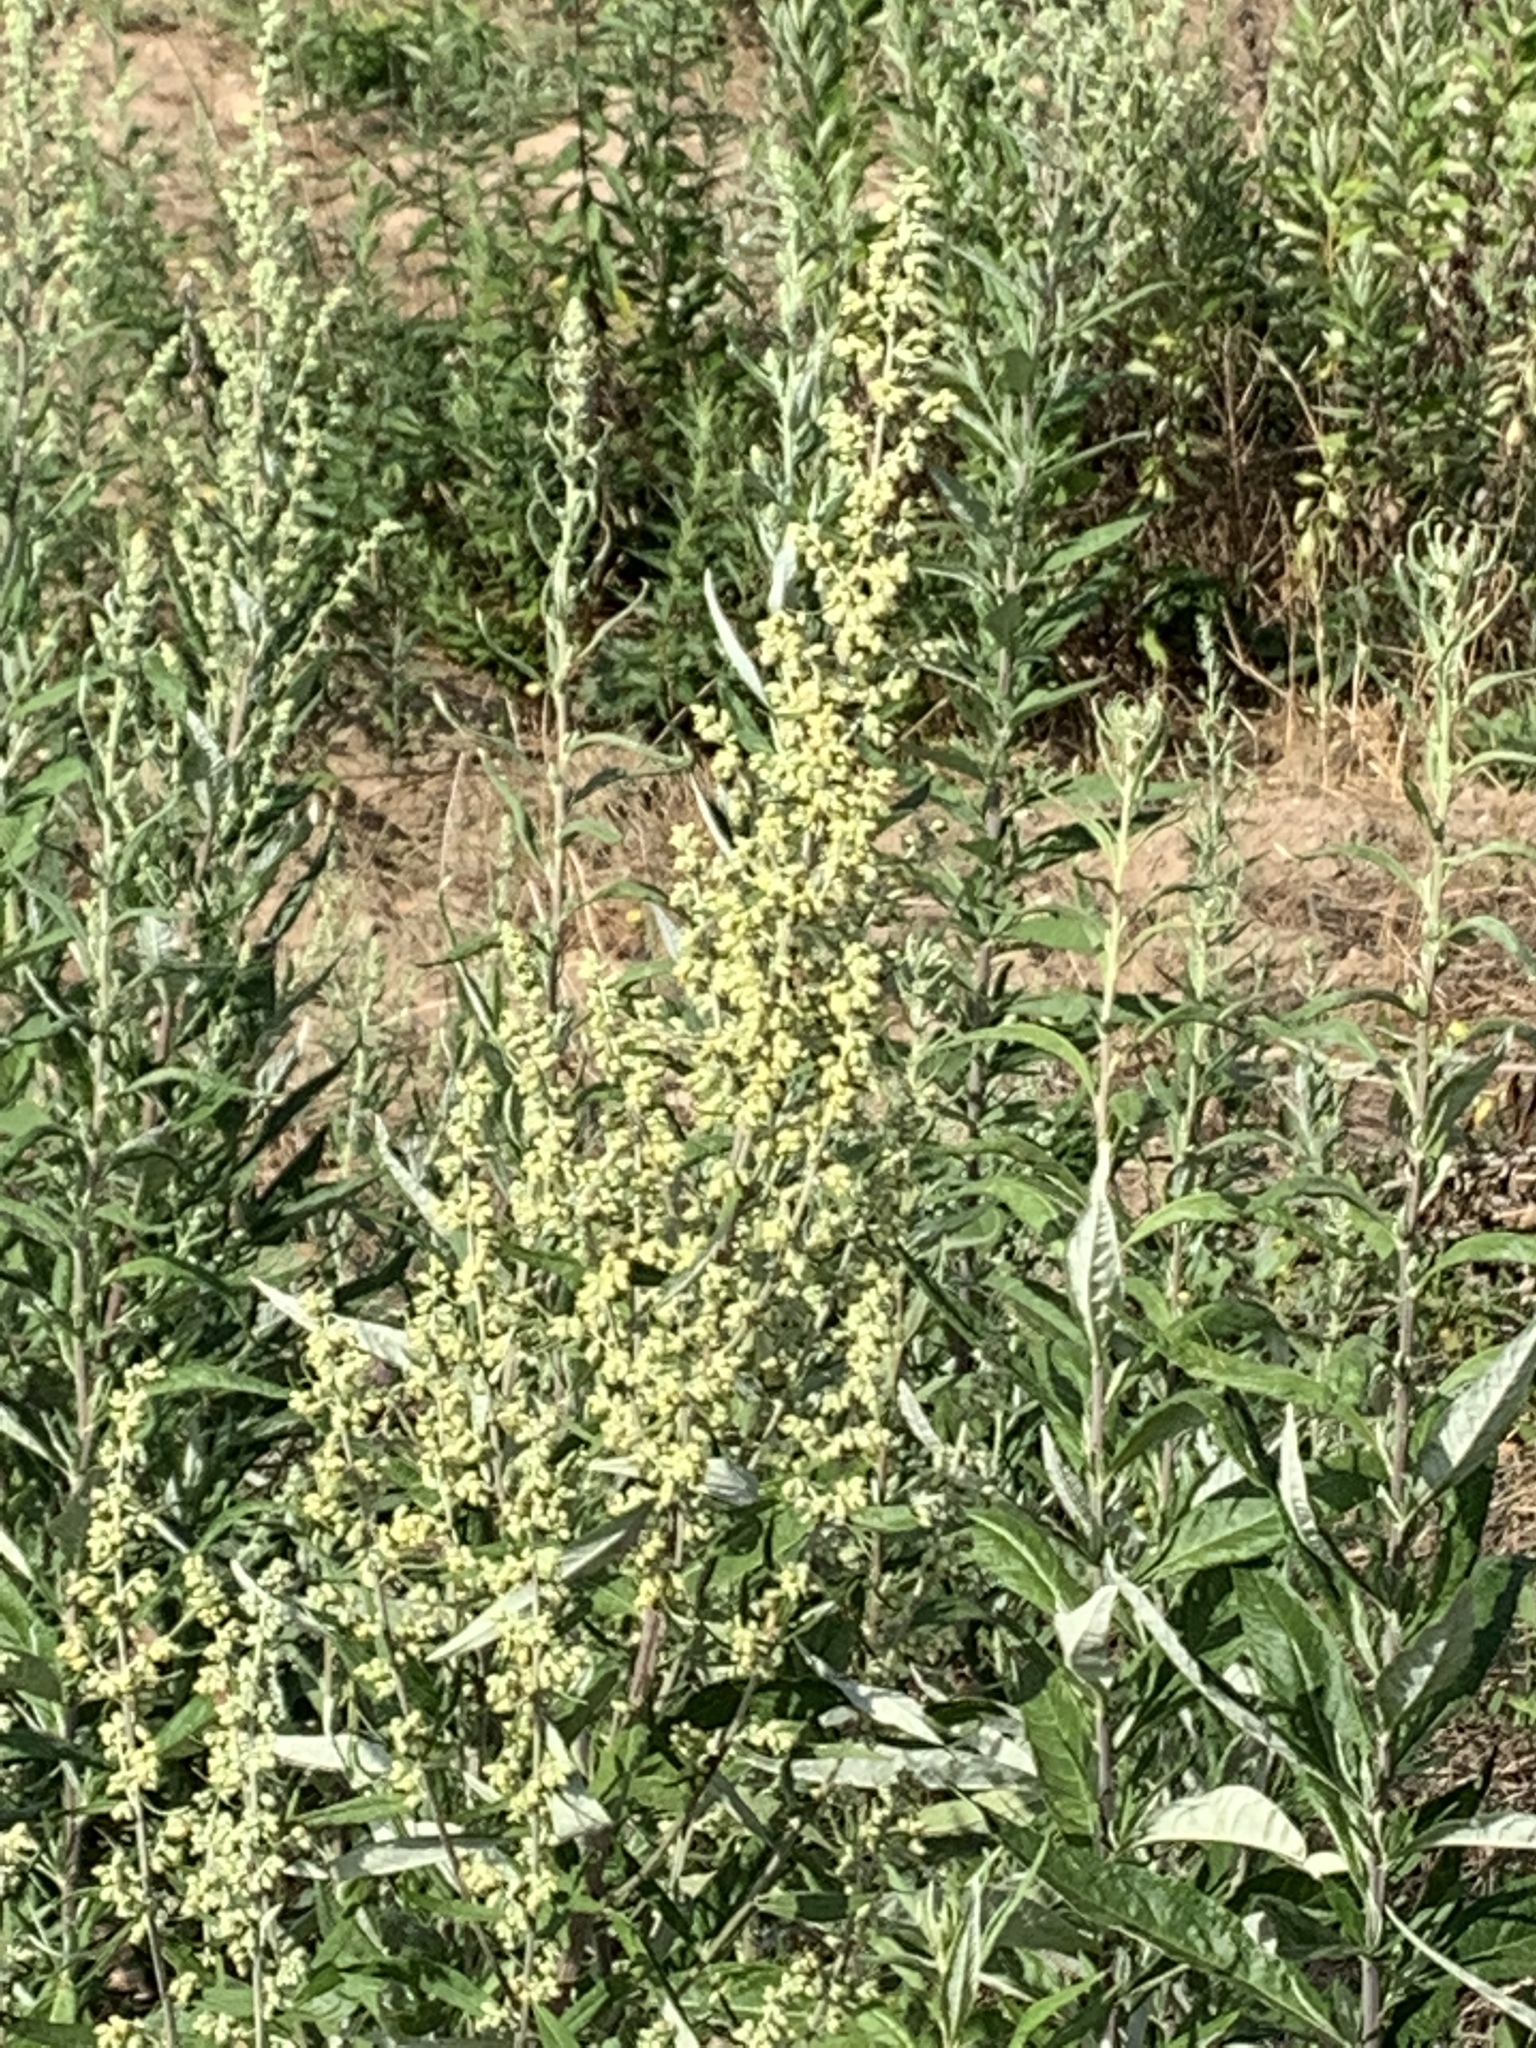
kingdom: Plantae
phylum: Tracheophyta
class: Magnoliopsida
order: Asterales
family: Asteraceae
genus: Artemisia
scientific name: Artemisia douglasiana
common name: Northwest mugwort
